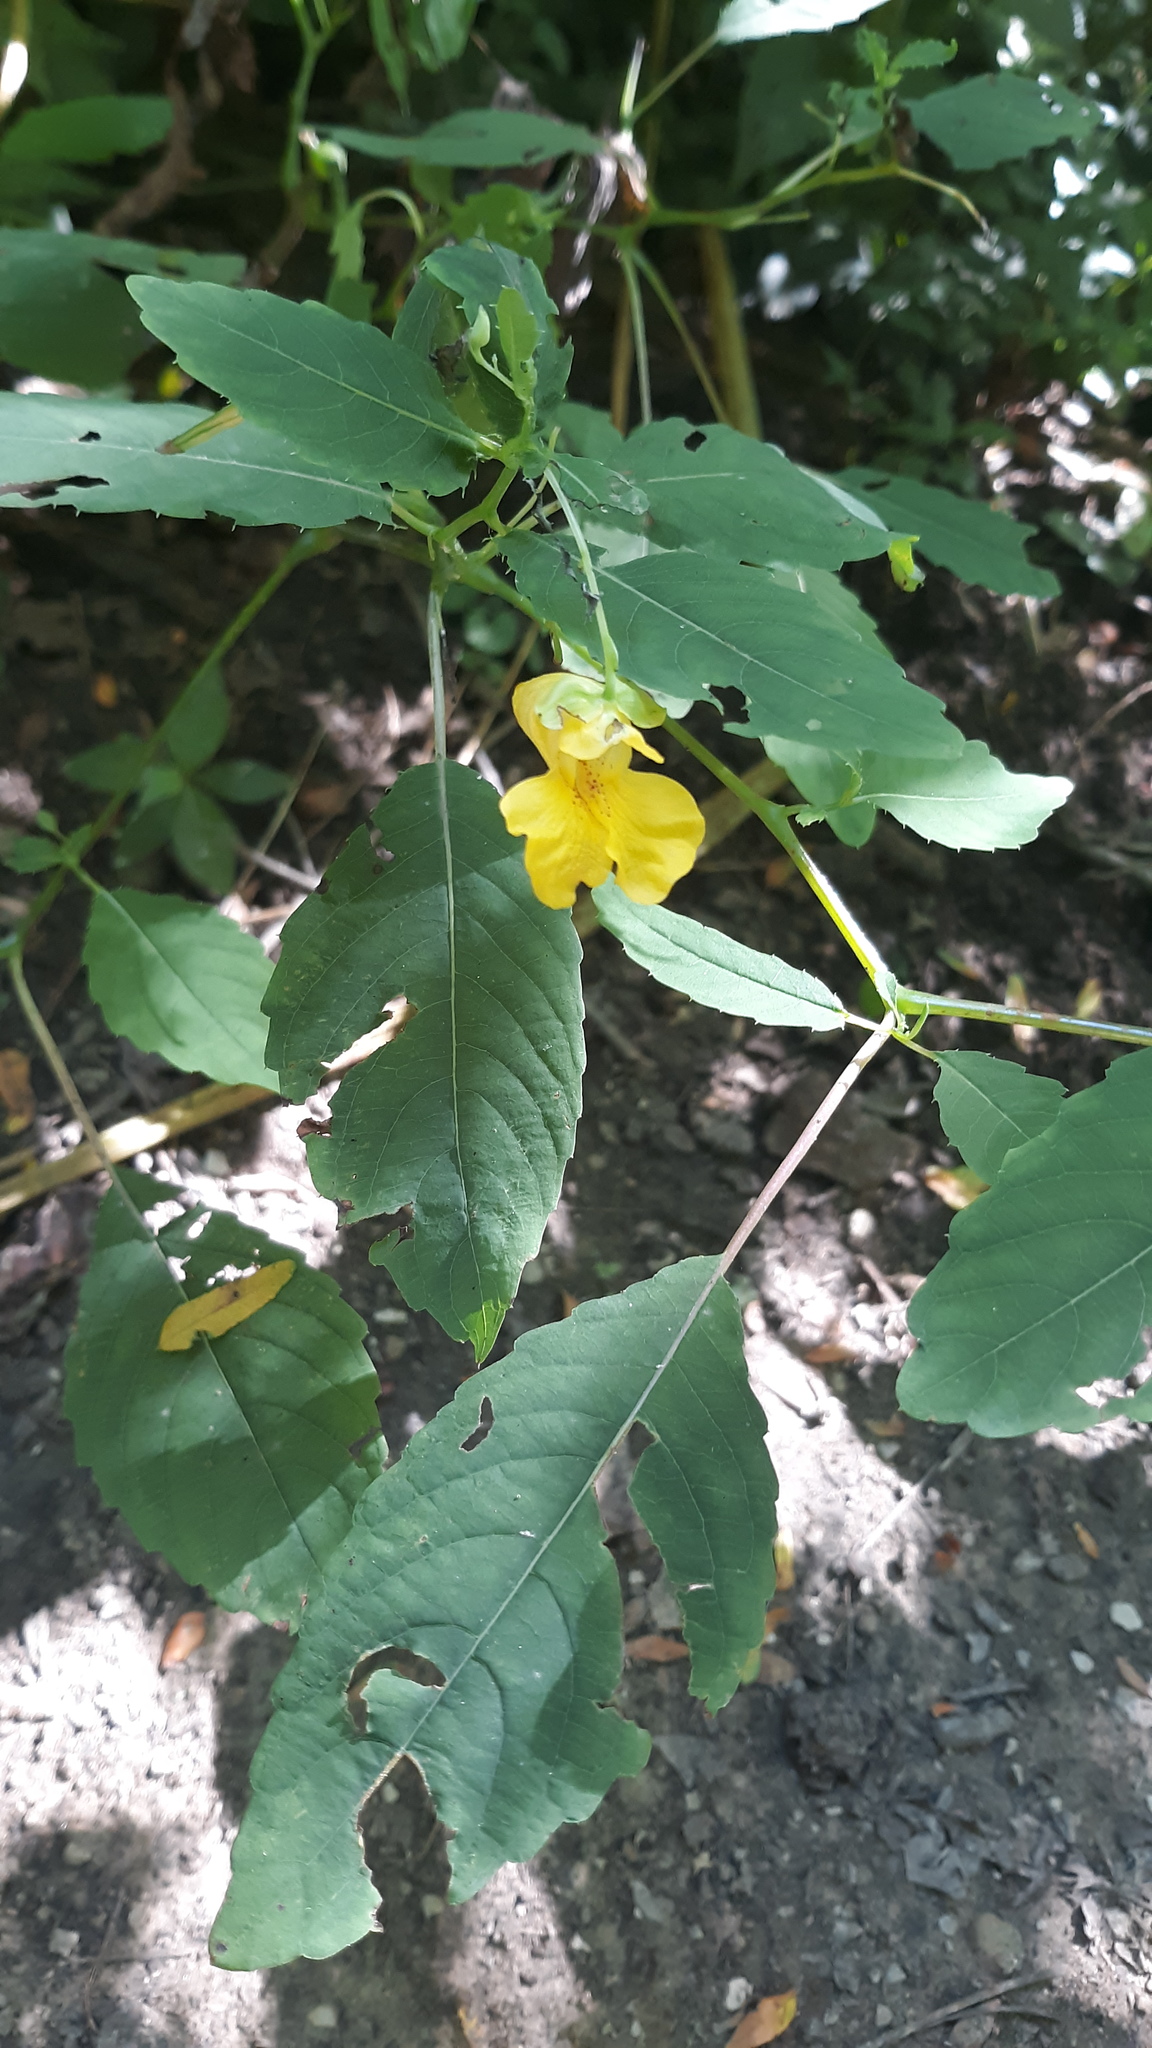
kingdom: Plantae
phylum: Tracheophyta
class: Magnoliopsida
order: Ericales
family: Balsaminaceae
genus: Impatiens
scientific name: Impatiens pallida
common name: Pale snapweed
